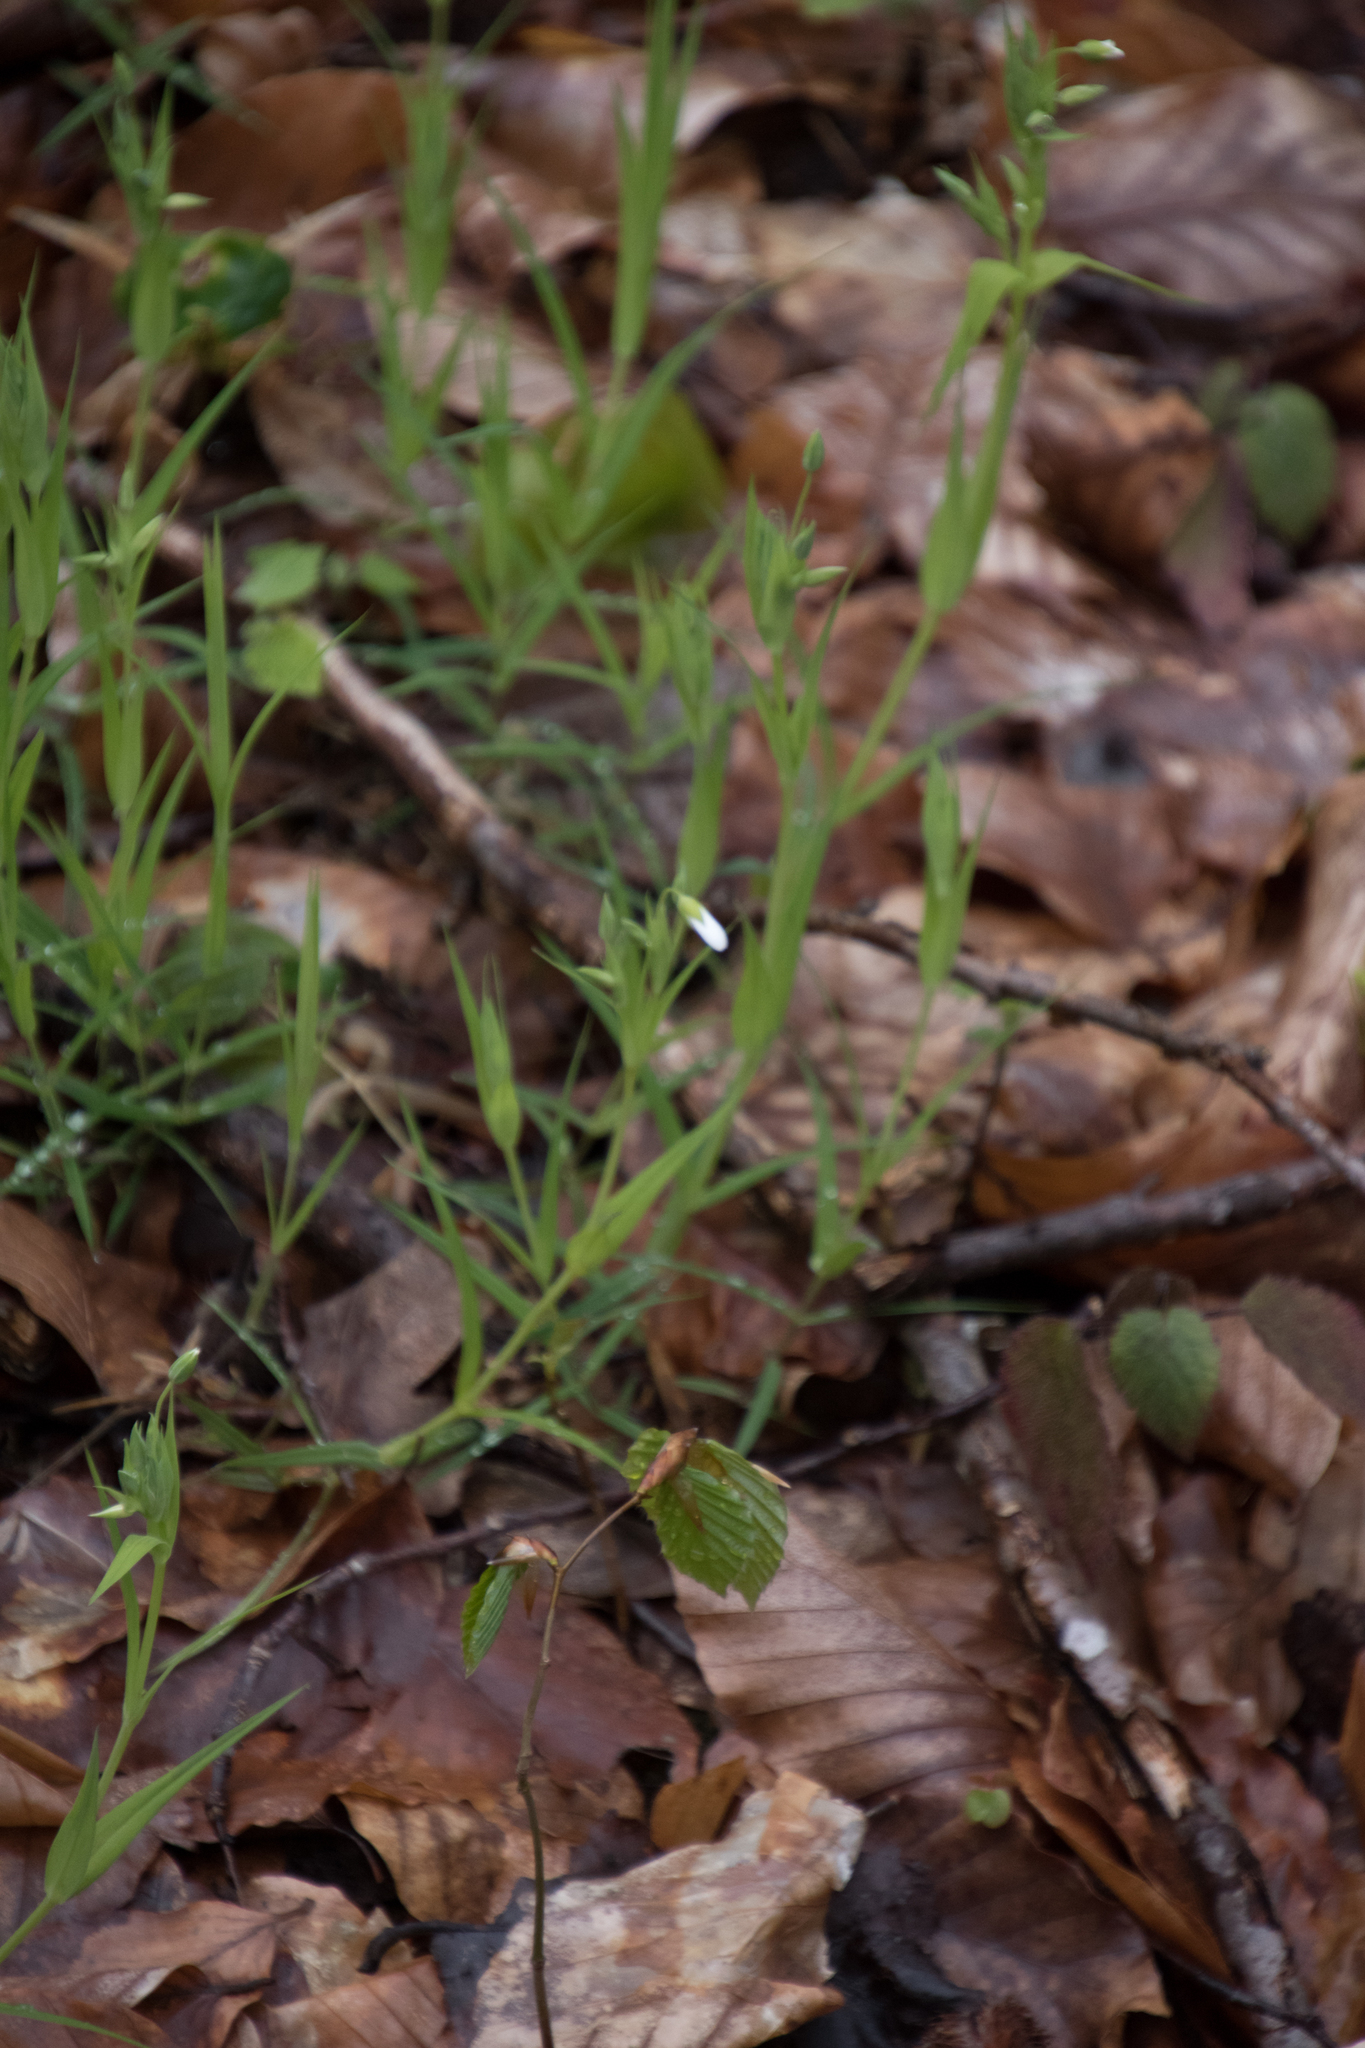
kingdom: Plantae
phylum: Tracheophyta
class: Magnoliopsida
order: Caryophyllales
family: Caryophyllaceae
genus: Rabelera
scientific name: Rabelera holostea
